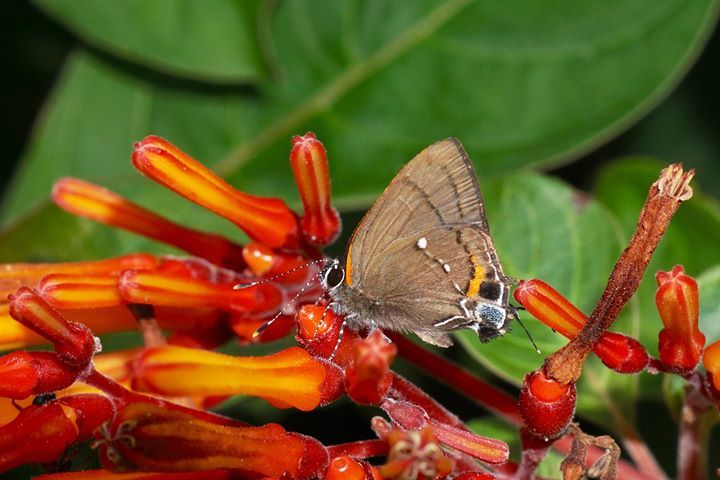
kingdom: Animalia
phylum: Arthropoda
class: Insecta
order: Lepidoptera
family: Lycaenidae
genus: Thecla
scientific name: Thecla angelia
